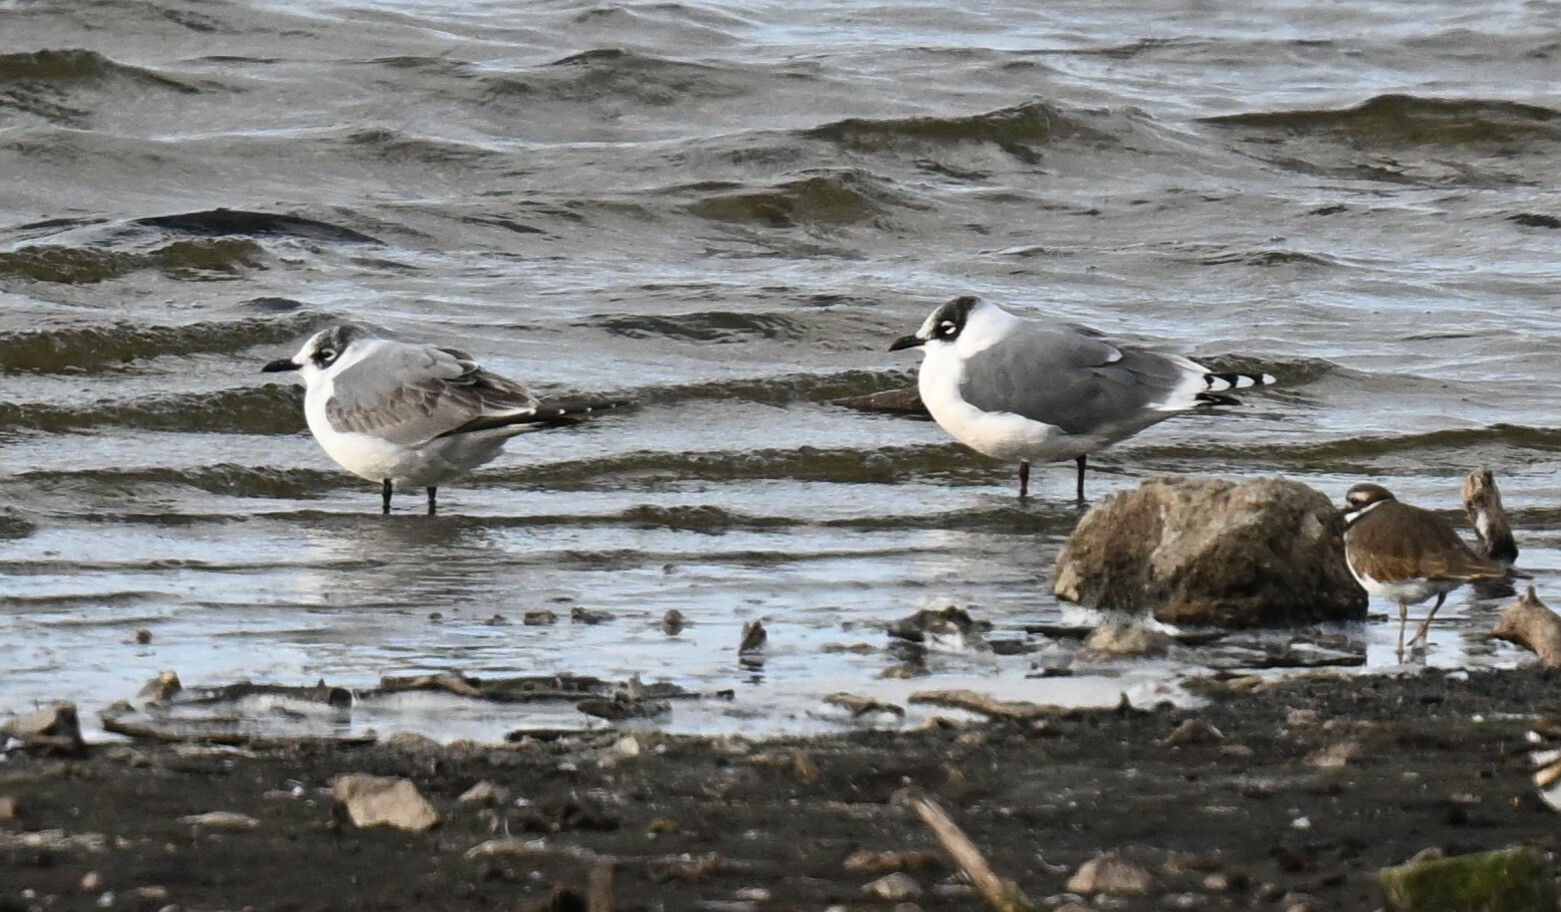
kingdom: Animalia
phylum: Chordata
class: Aves
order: Charadriiformes
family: Laridae
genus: Leucophaeus
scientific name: Leucophaeus pipixcan
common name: Franklin's gull
